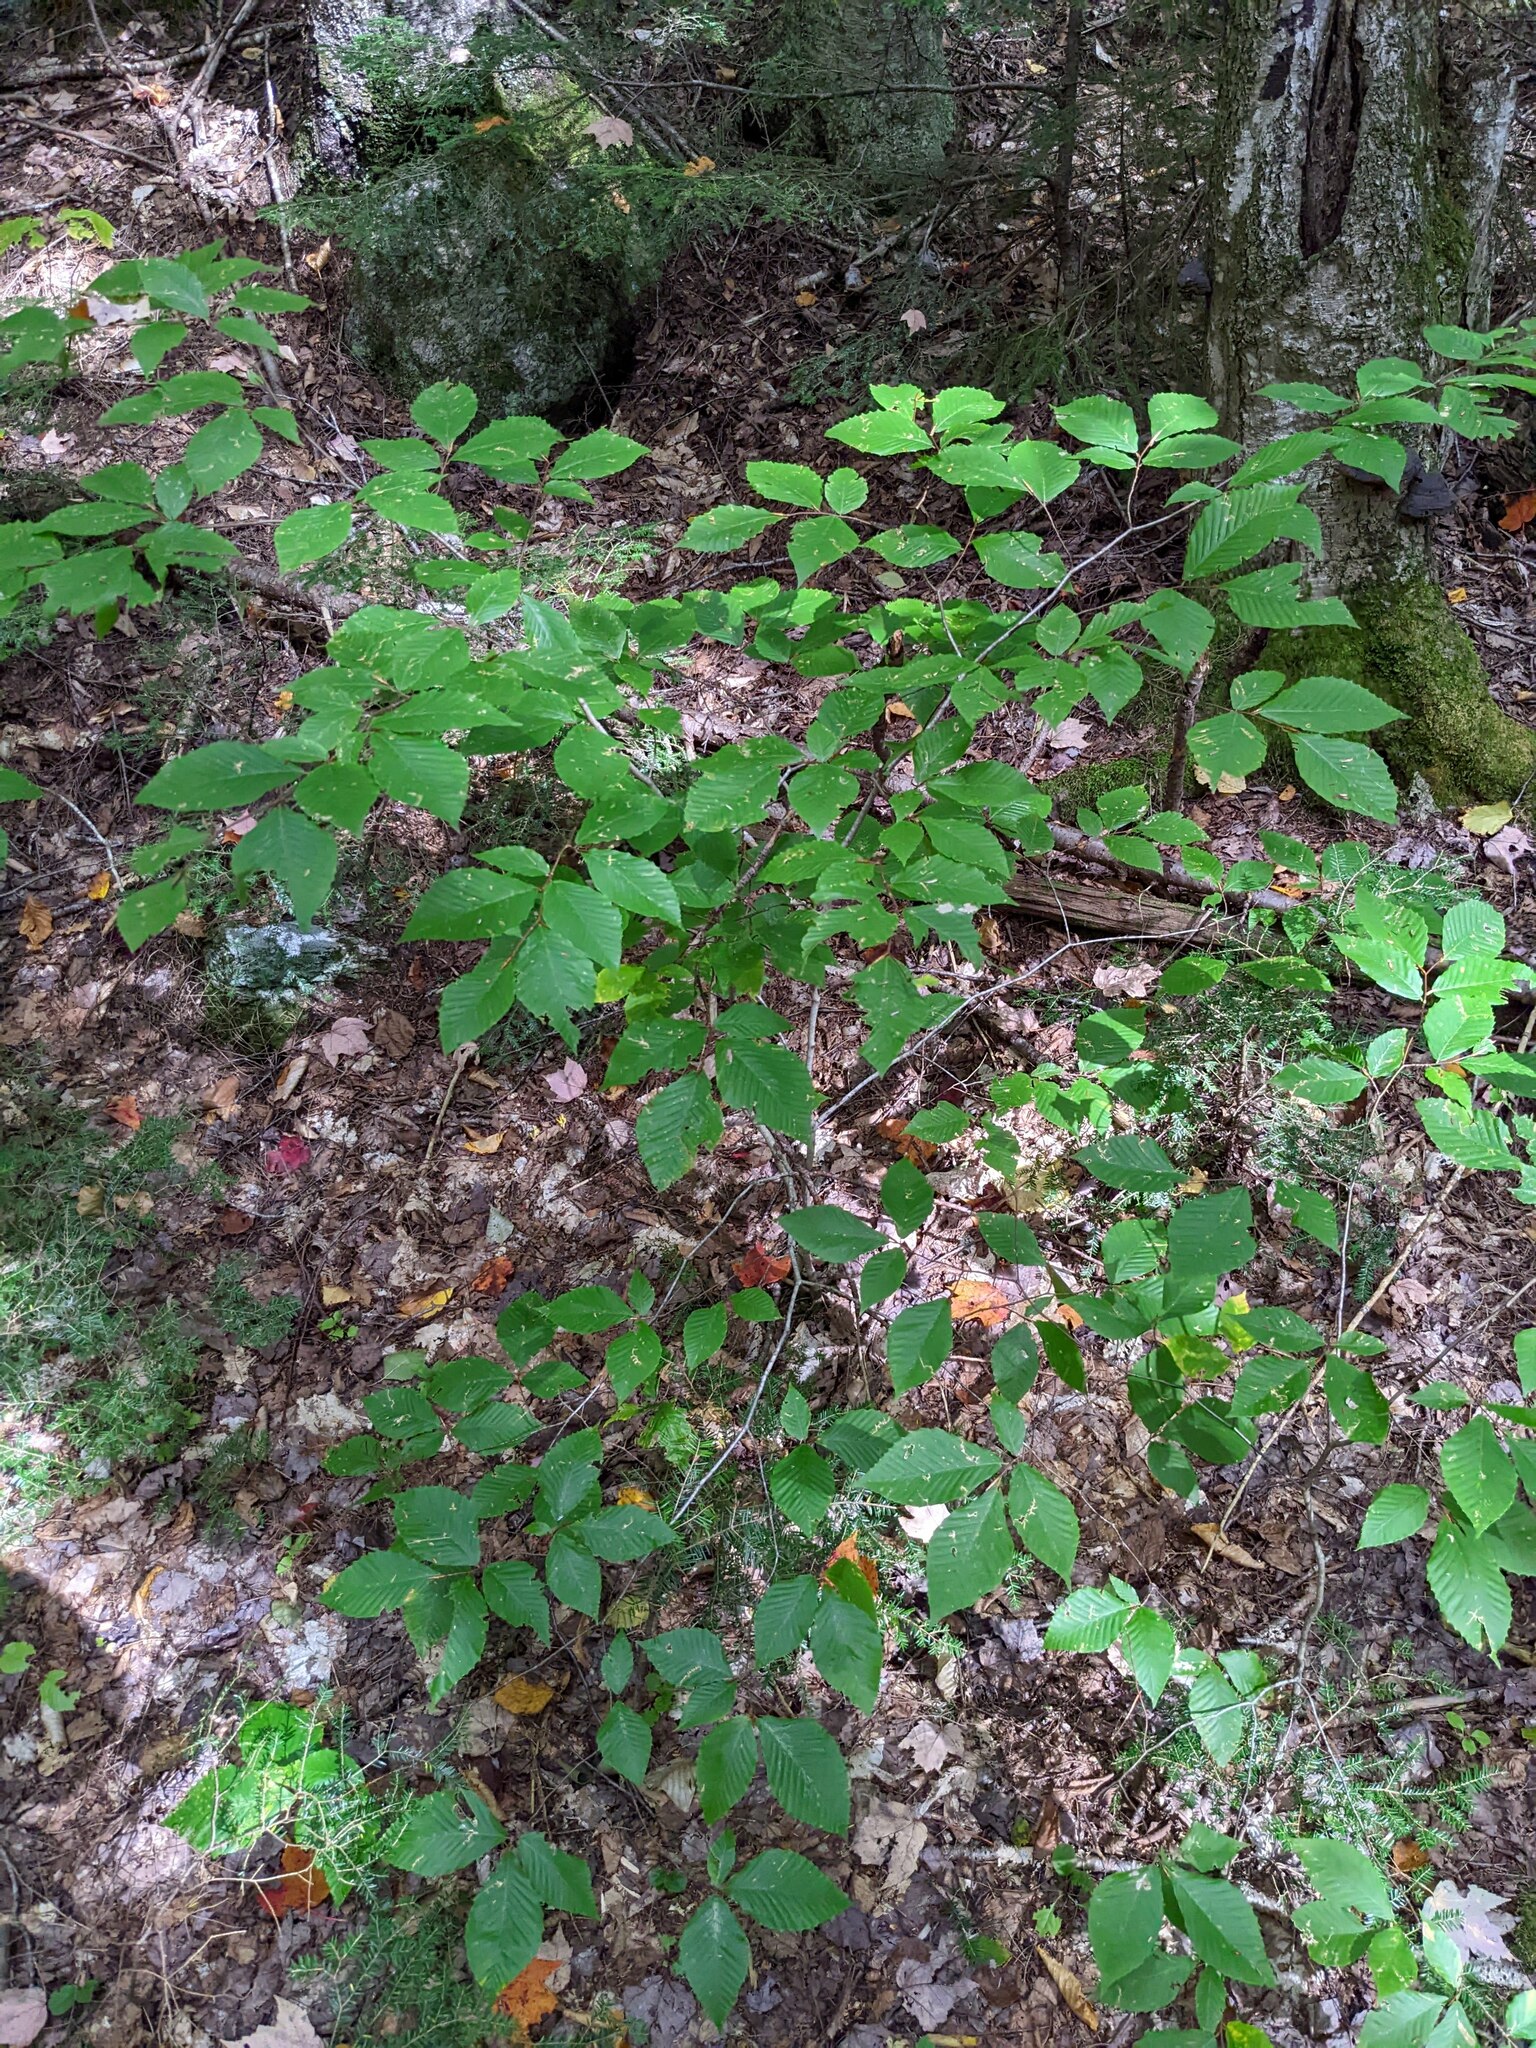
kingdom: Plantae
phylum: Tracheophyta
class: Magnoliopsida
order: Fagales
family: Fagaceae
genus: Fagus
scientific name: Fagus grandifolia
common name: American beech
